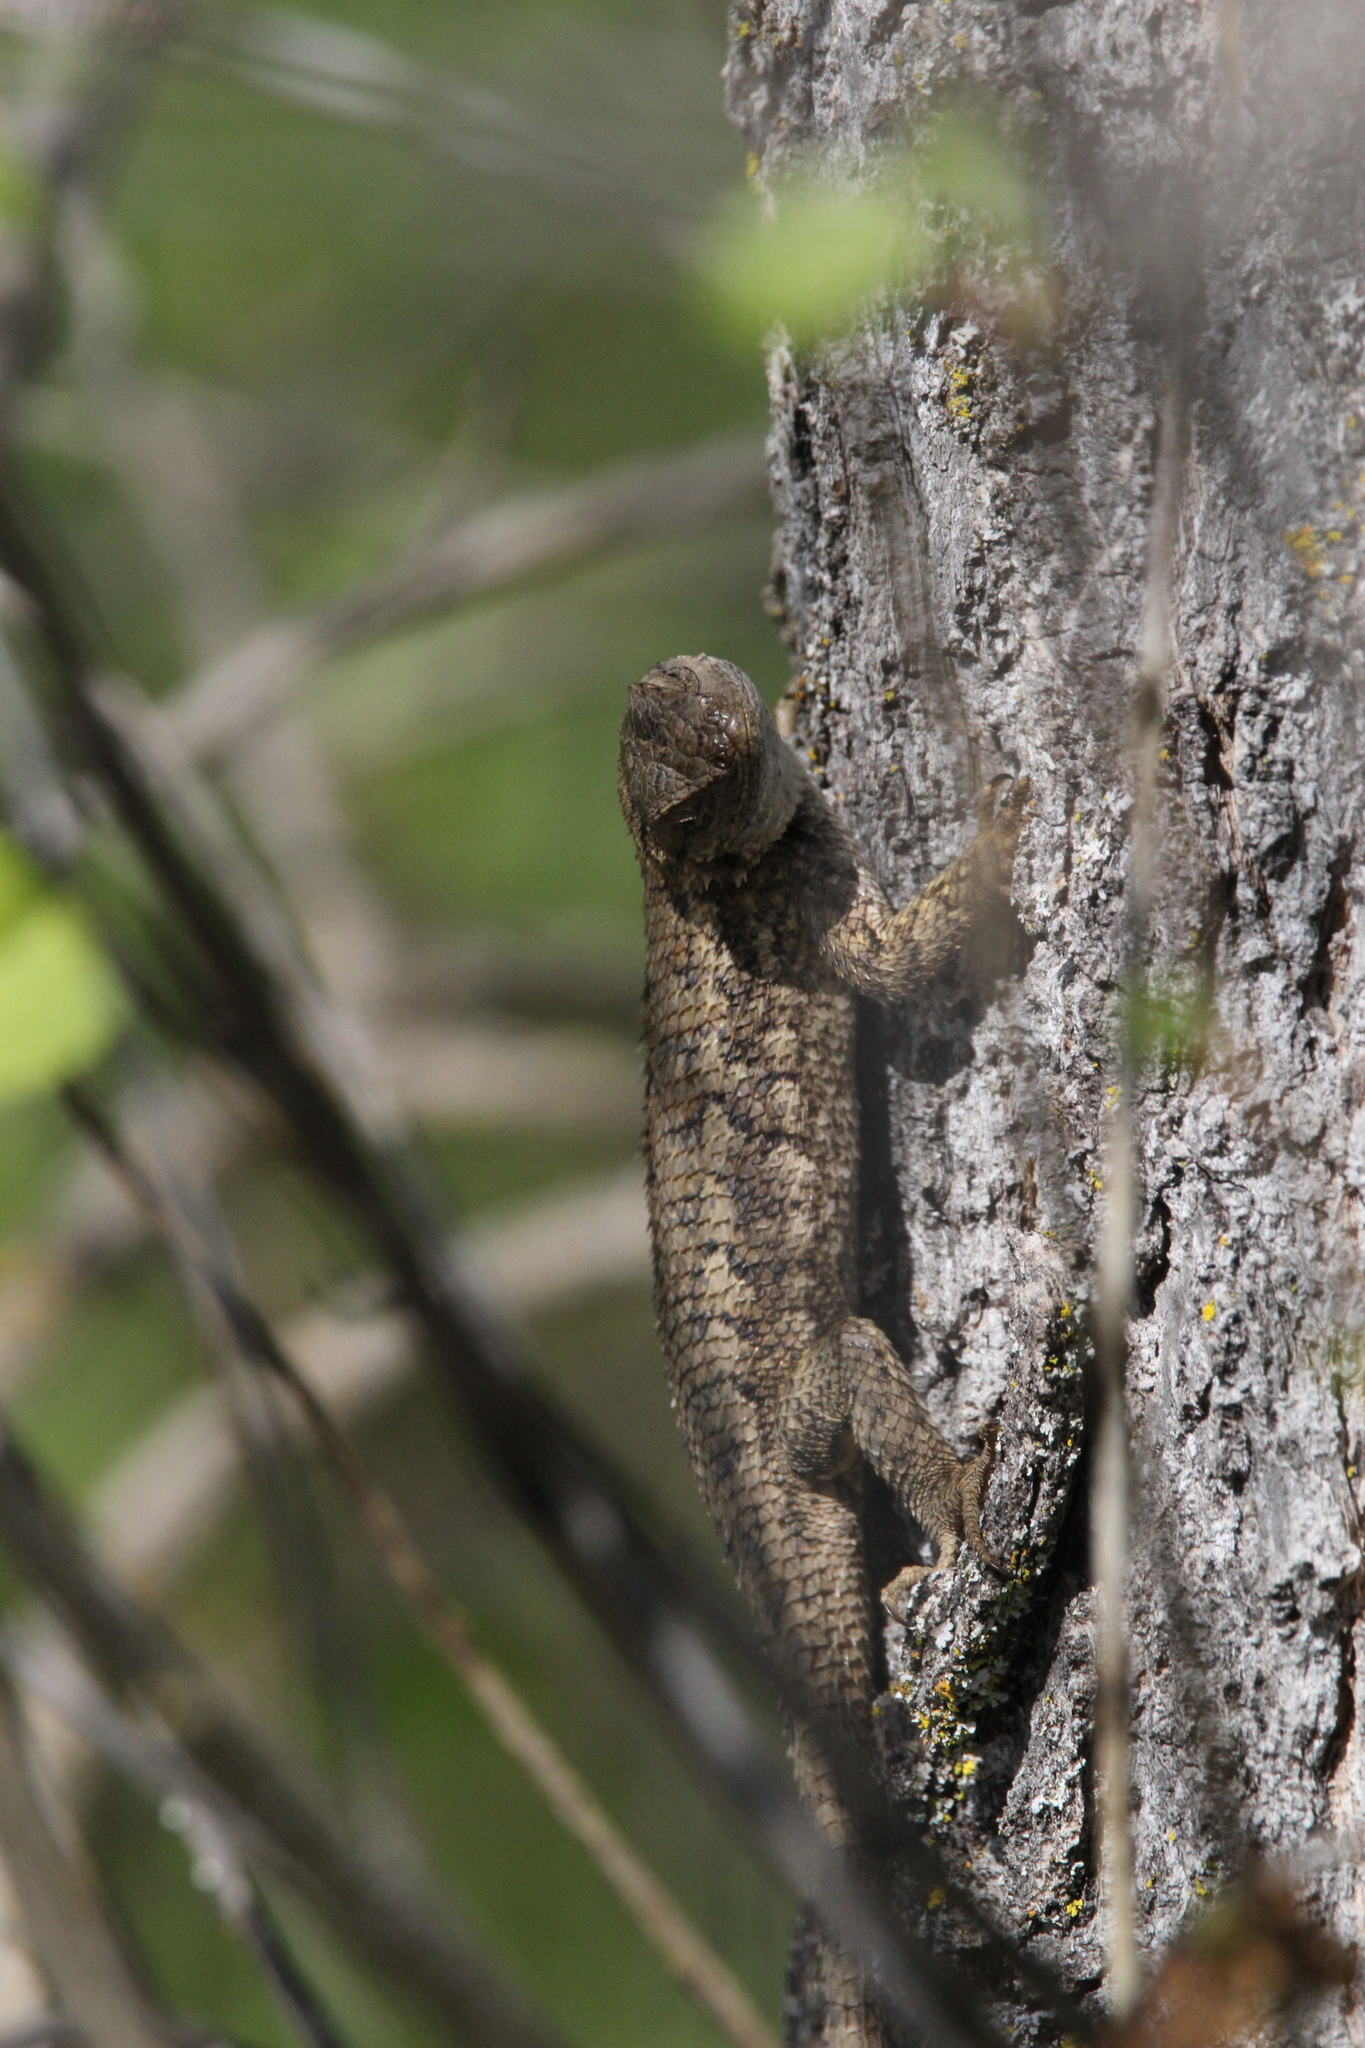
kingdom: Animalia
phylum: Chordata
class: Squamata
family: Phrynosomatidae
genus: Sceloporus
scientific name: Sceloporus occidentalis
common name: Western fence lizard
